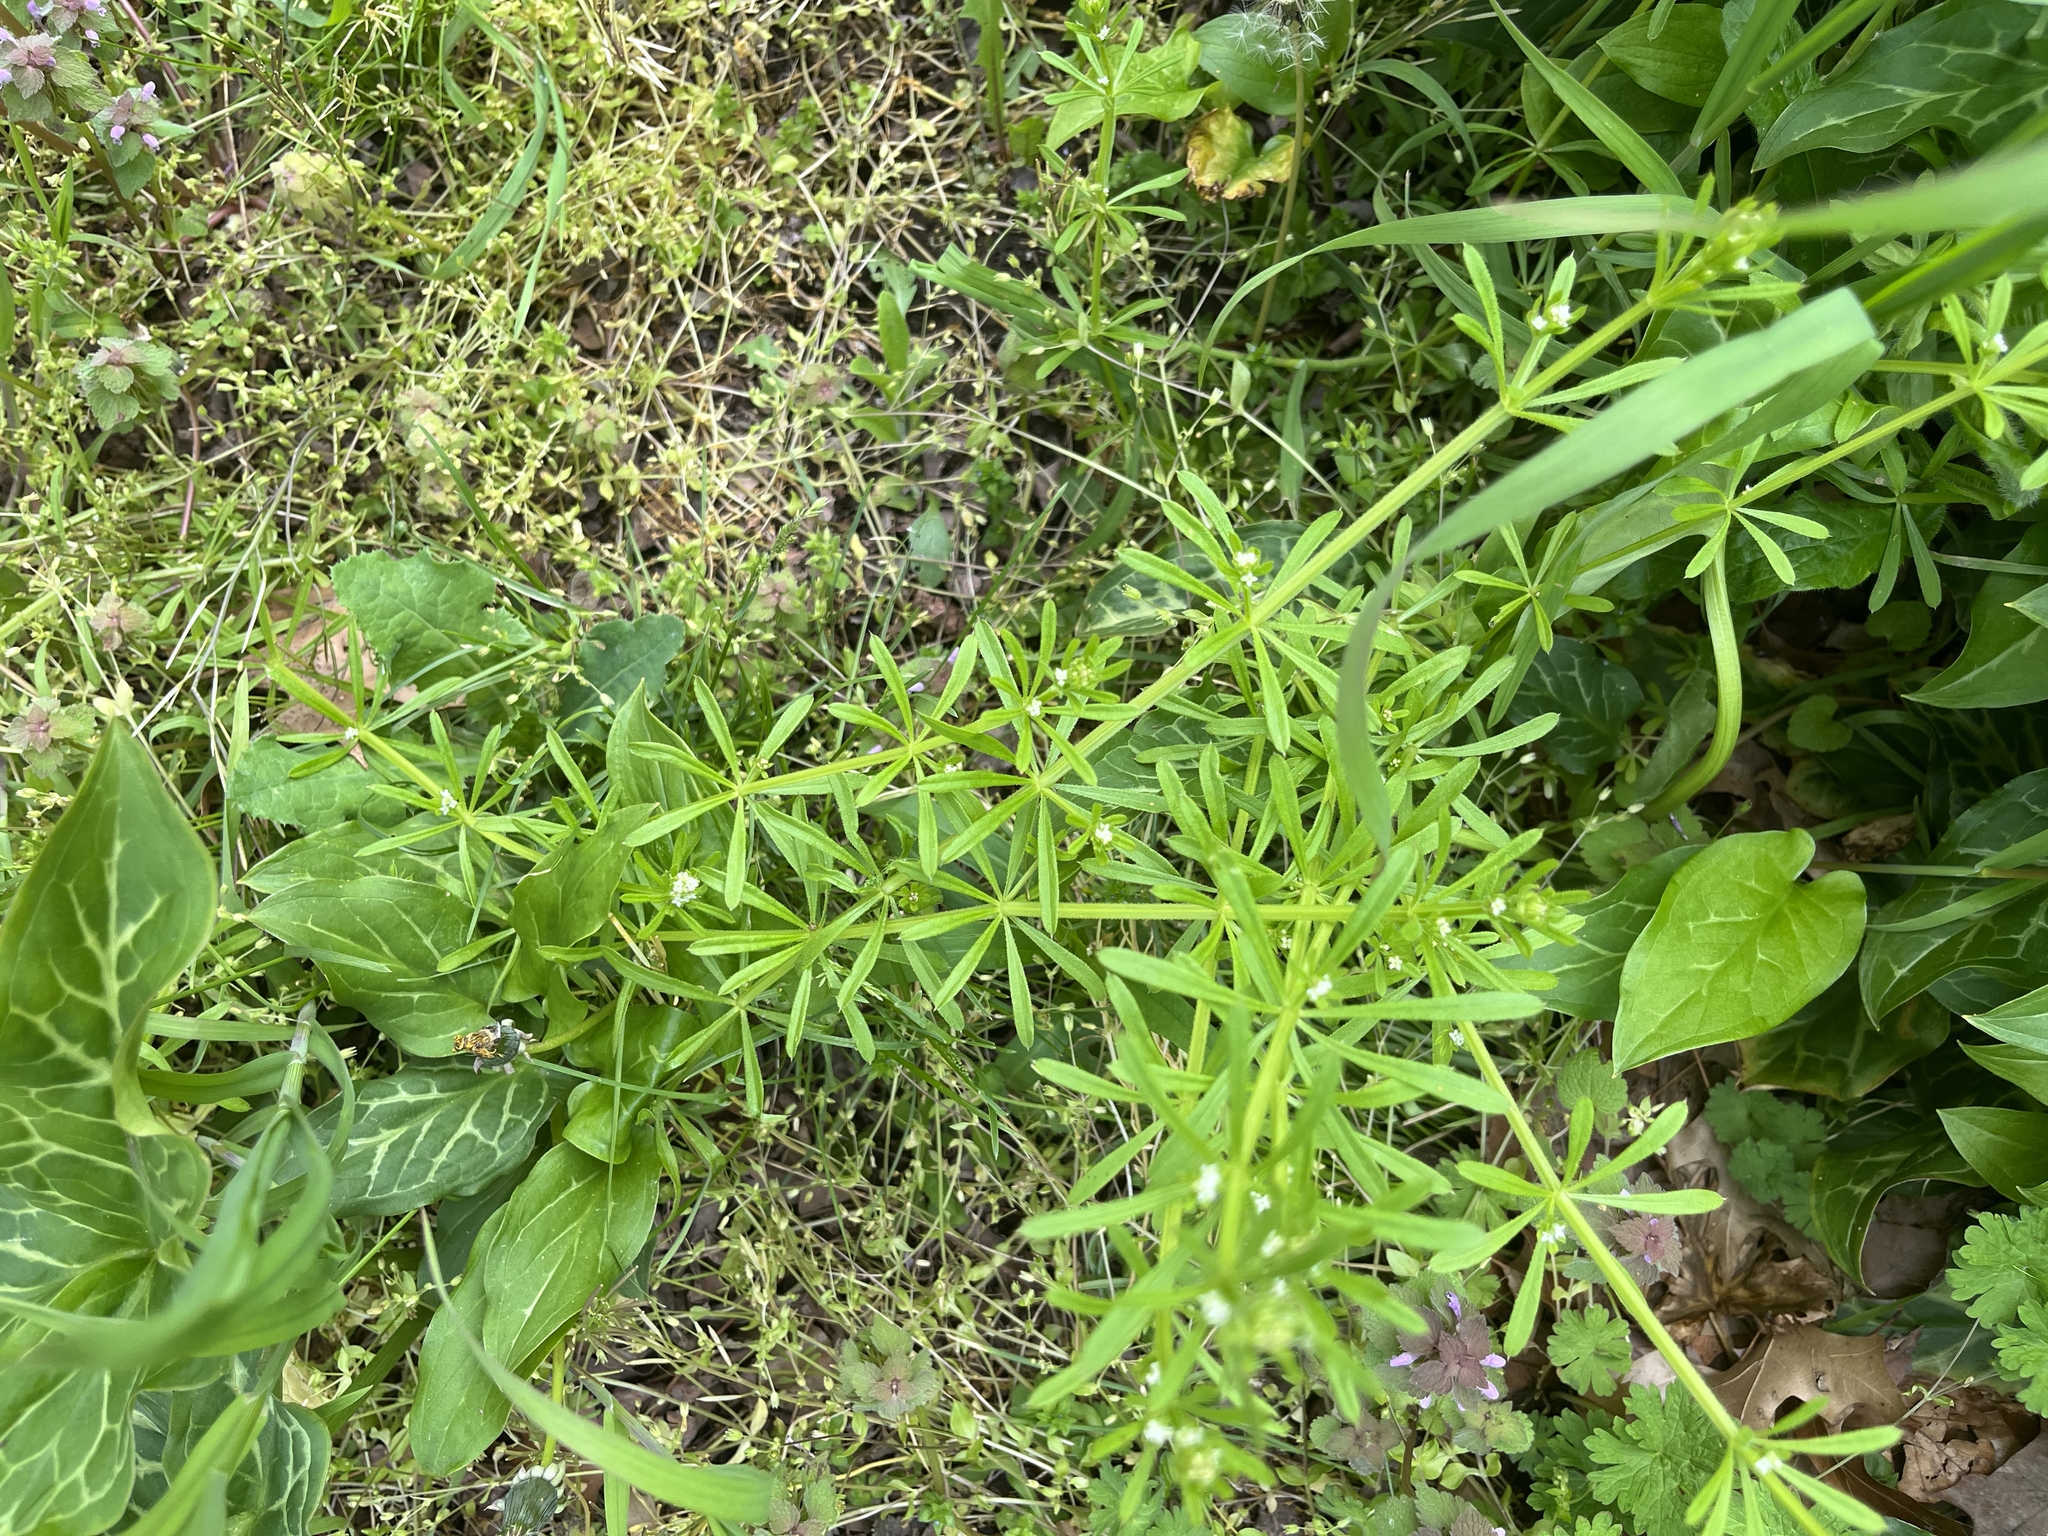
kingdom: Plantae
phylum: Tracheophyta
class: Magnoliopsida
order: Gentianales
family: Rubiaceae
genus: Galium
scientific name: Galium aparine
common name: Cleavers
